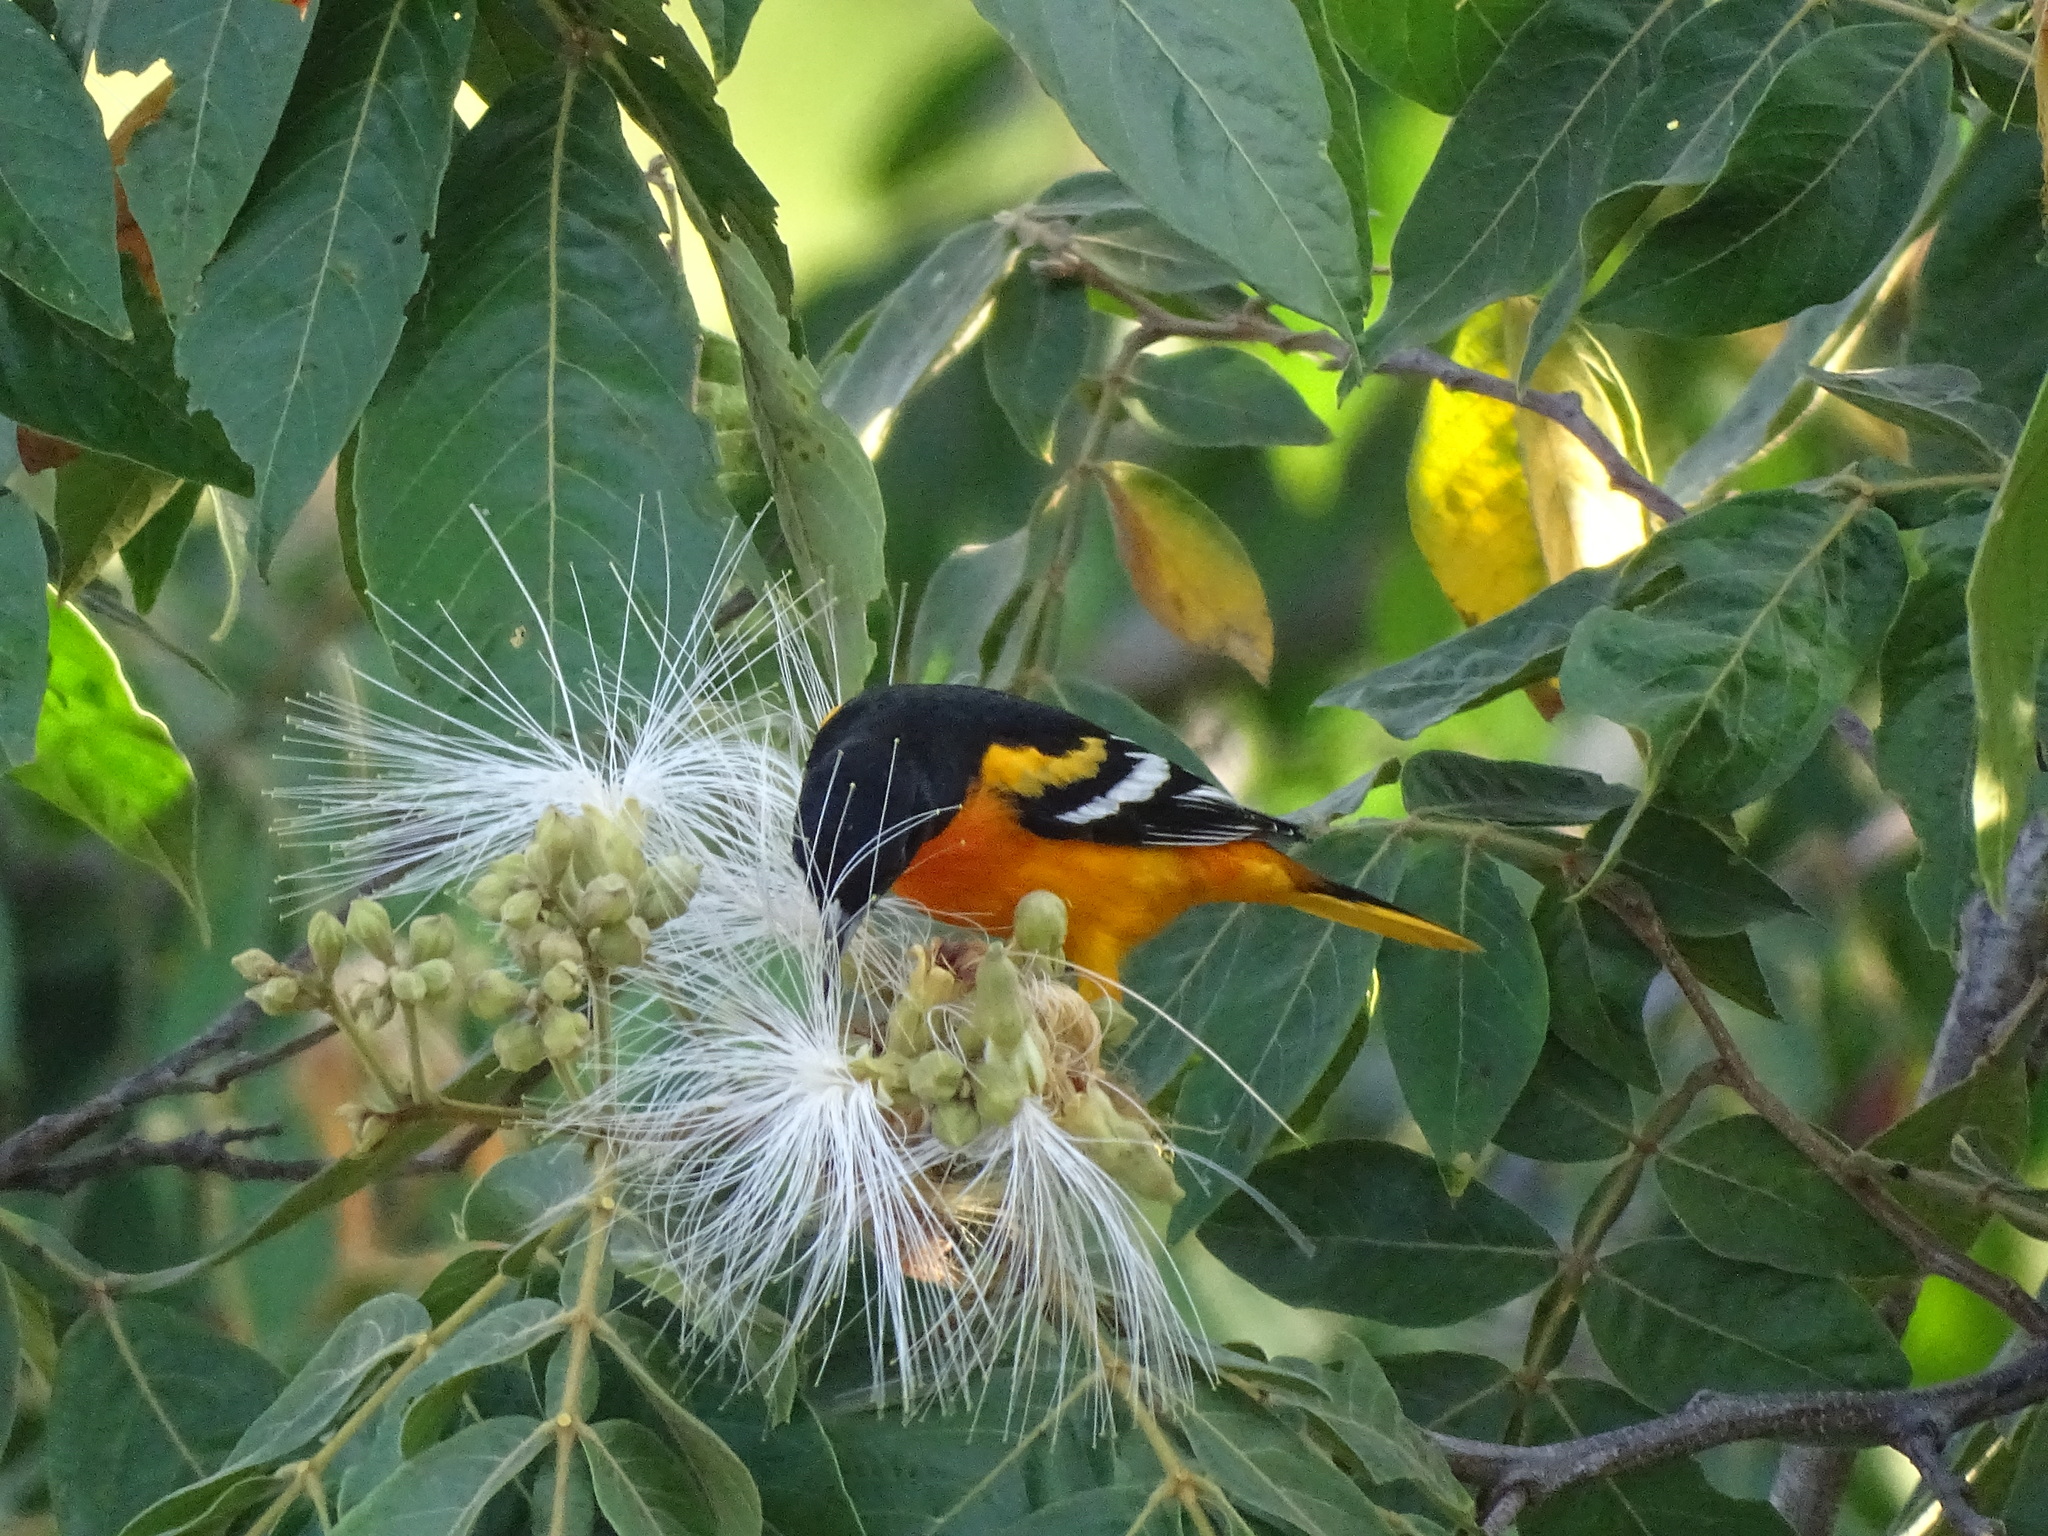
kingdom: Animalia
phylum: Chordata
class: Aves
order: Passeriformes
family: Icteridae
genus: Icterus
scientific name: Icterus galbula
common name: Baltimore oriole
